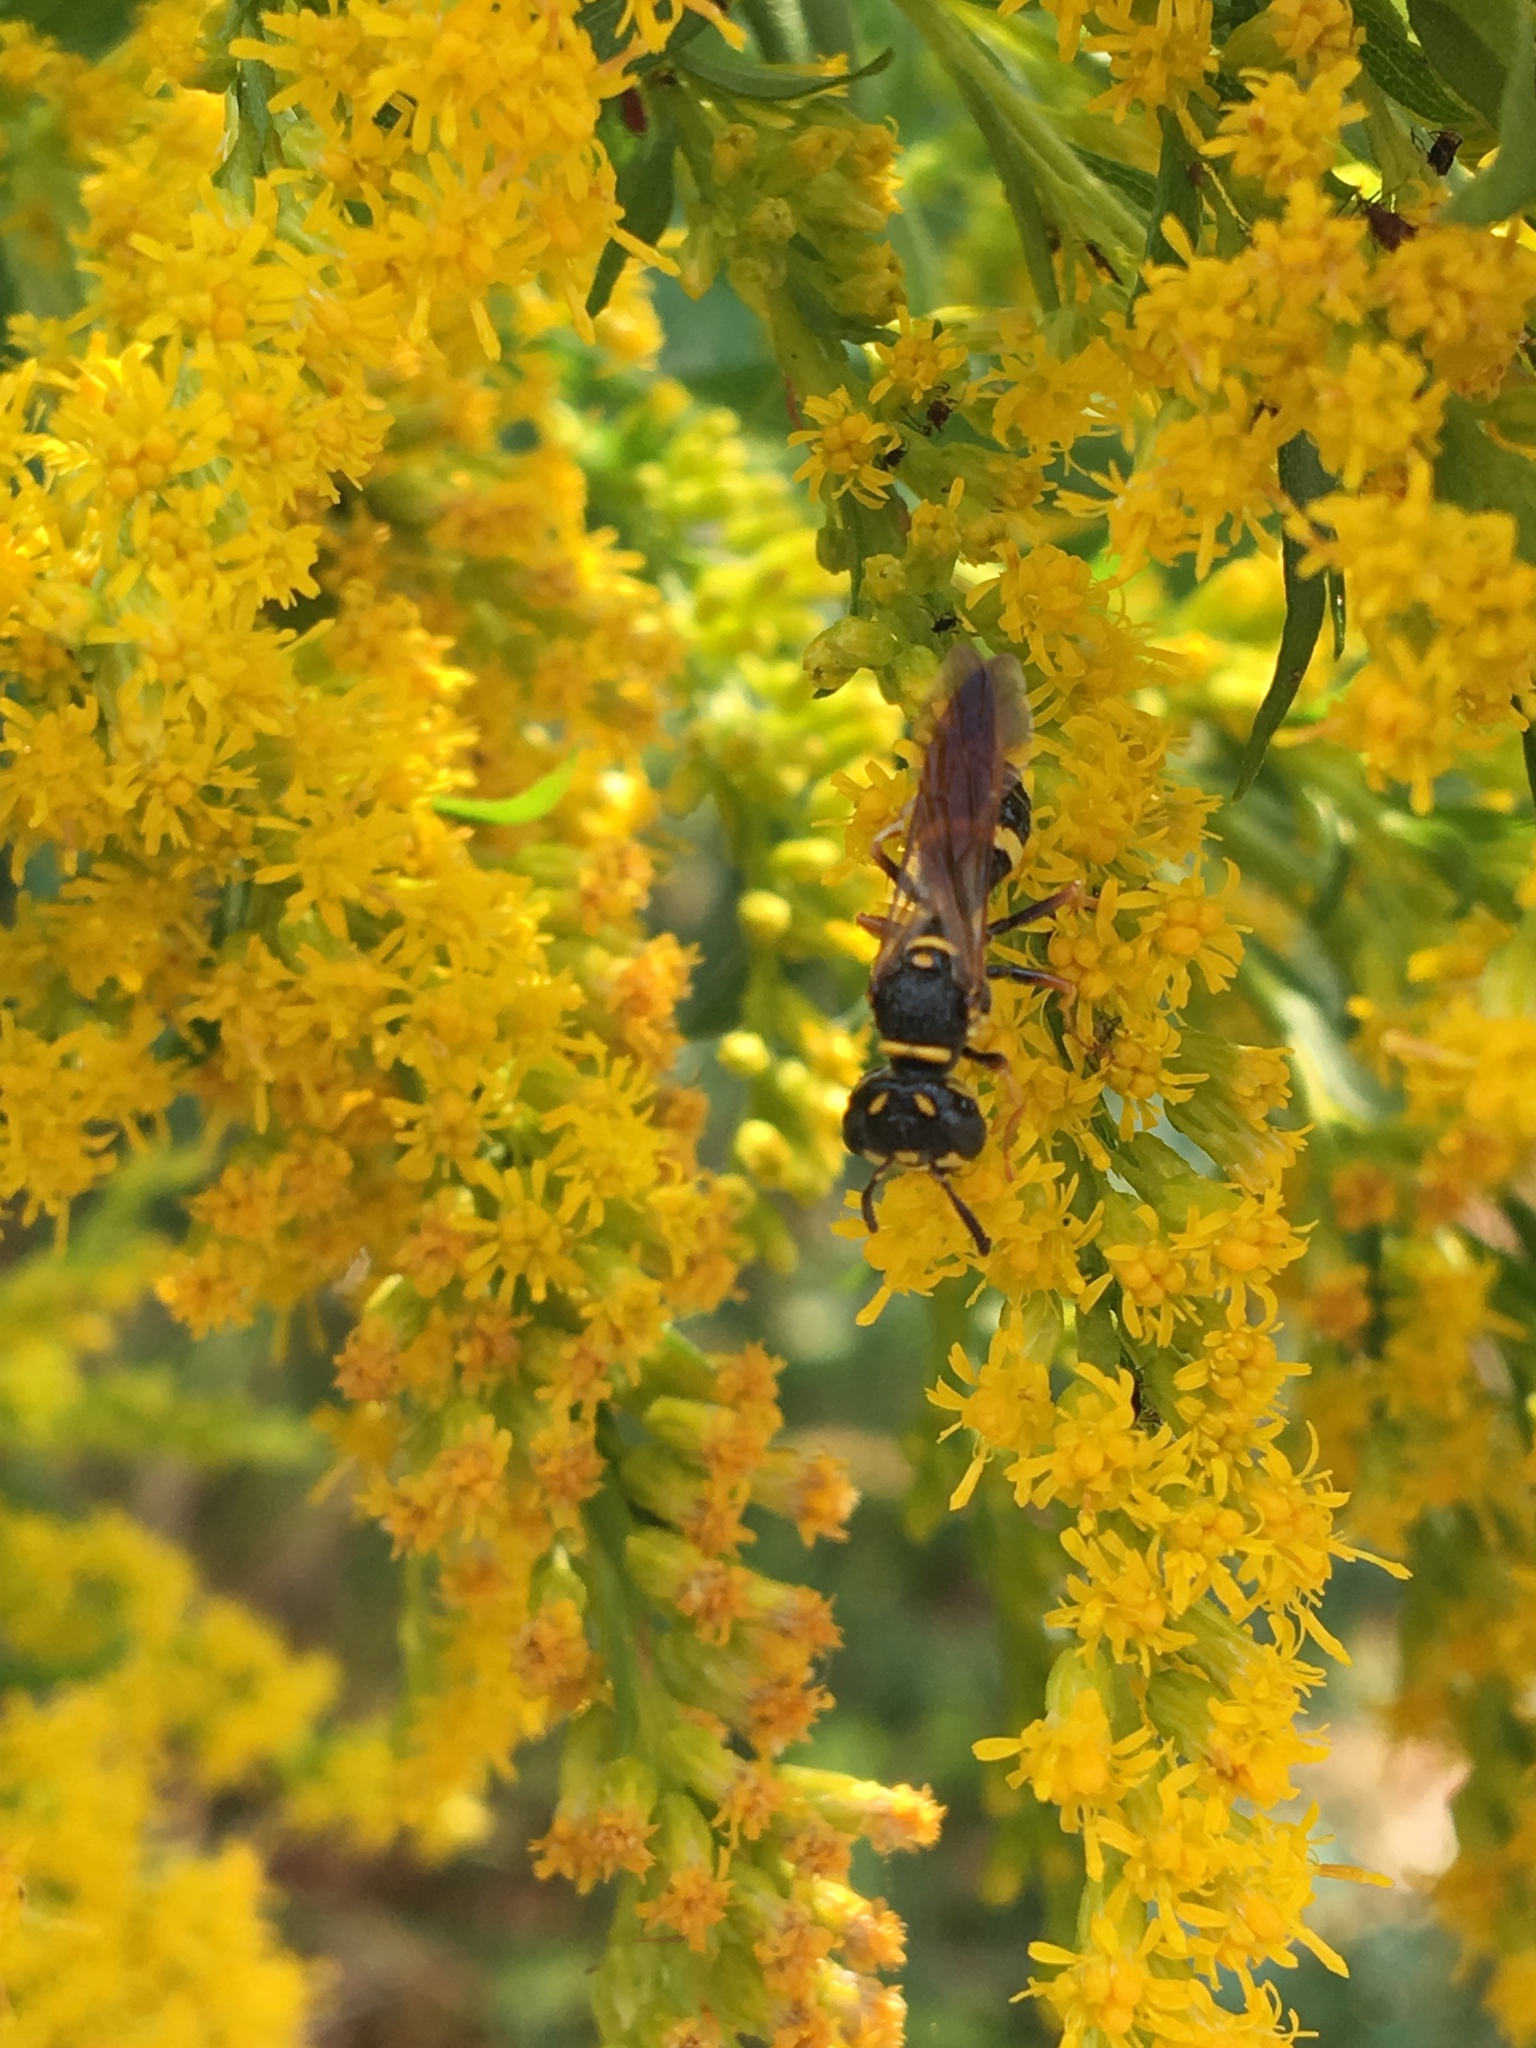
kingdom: Animalia
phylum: Arthropoda
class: Insecta
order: Hymenoptera
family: Crabronidae
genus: Philanthus
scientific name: Philanthus gibbosus
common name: Humped beewolf
